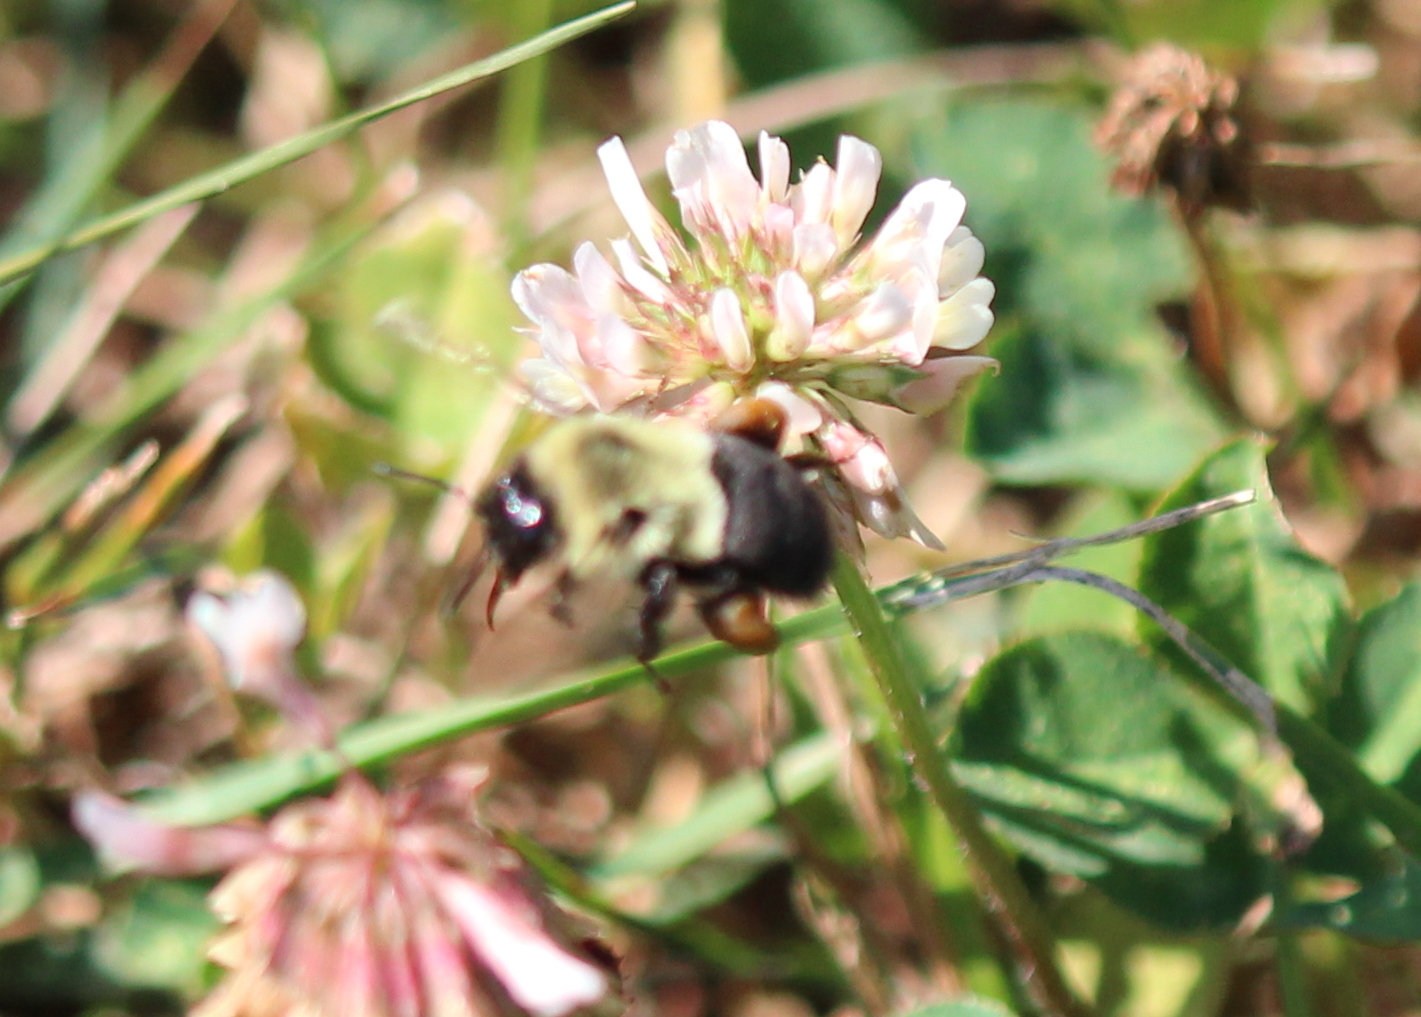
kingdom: Animalia
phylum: Arthropoda
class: Insecta
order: Hymenoptera
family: Apidae
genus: Bombus
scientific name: Bombus impatiens
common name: Common eastern bumble bee
